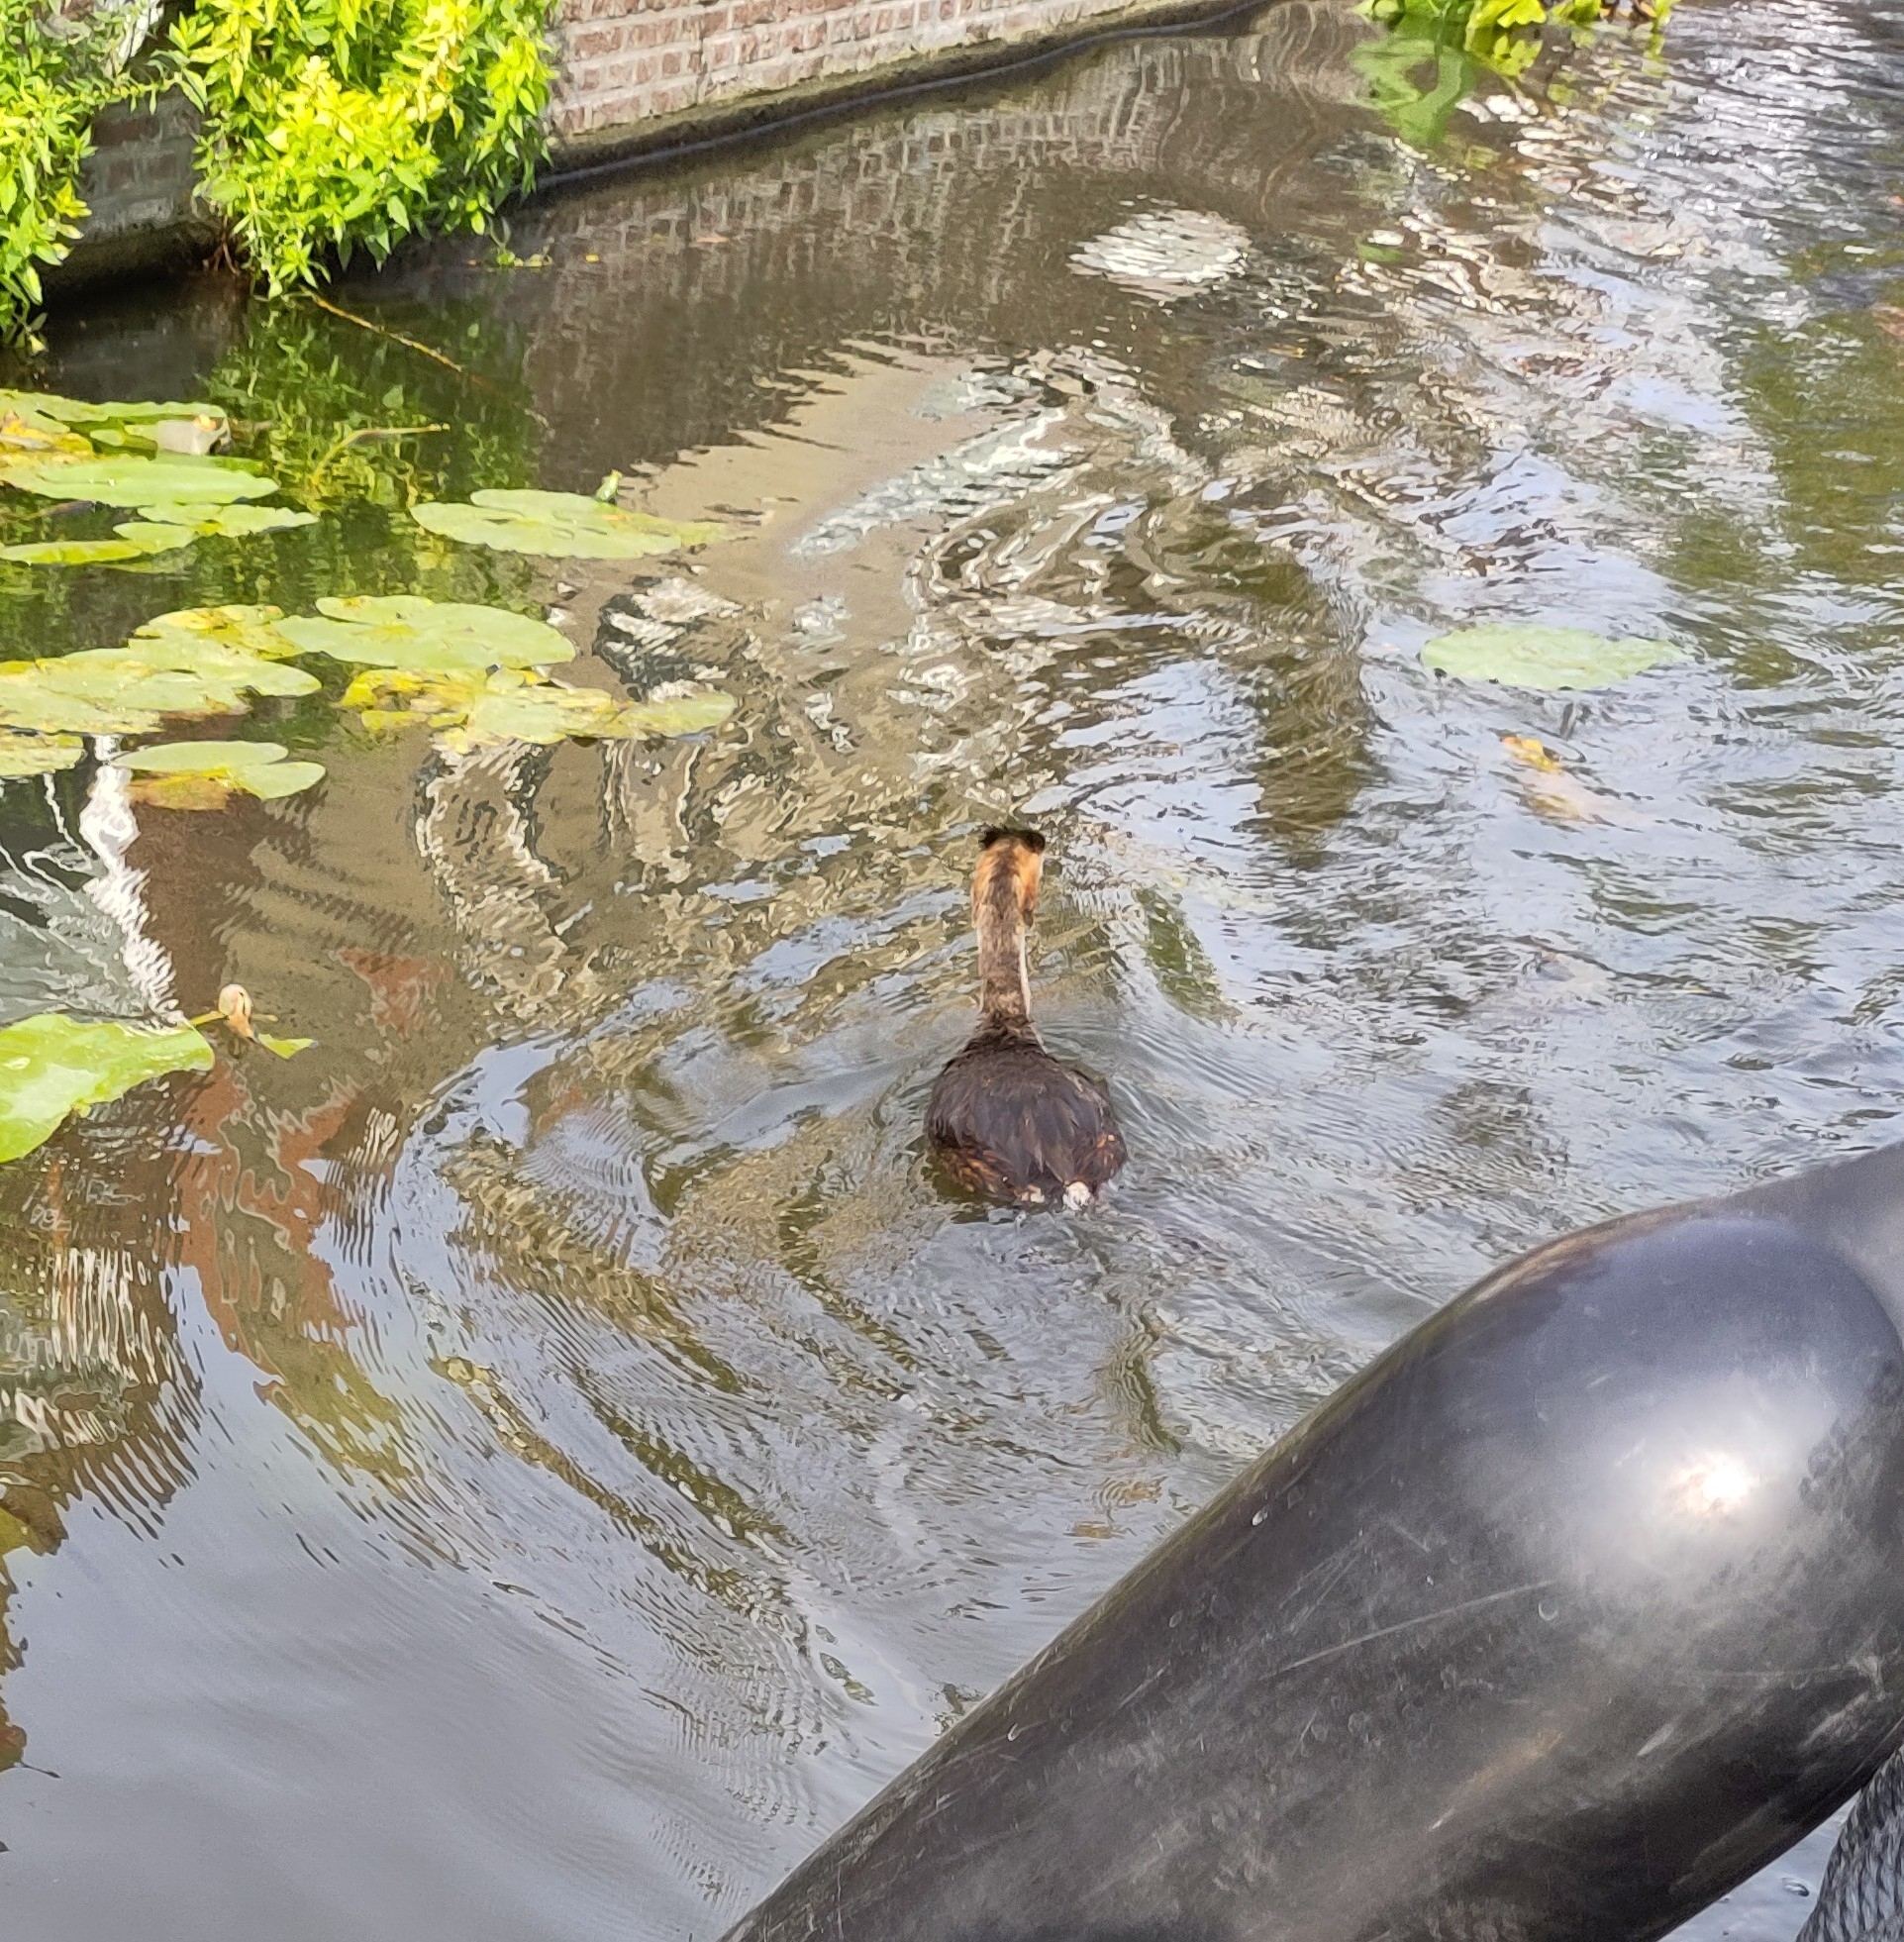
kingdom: Animalia
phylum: Chordata
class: Aves
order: Podicipediformes
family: Podicipedidae
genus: Podiceps
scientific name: Podiceps cristatus
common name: Great crested grebe
